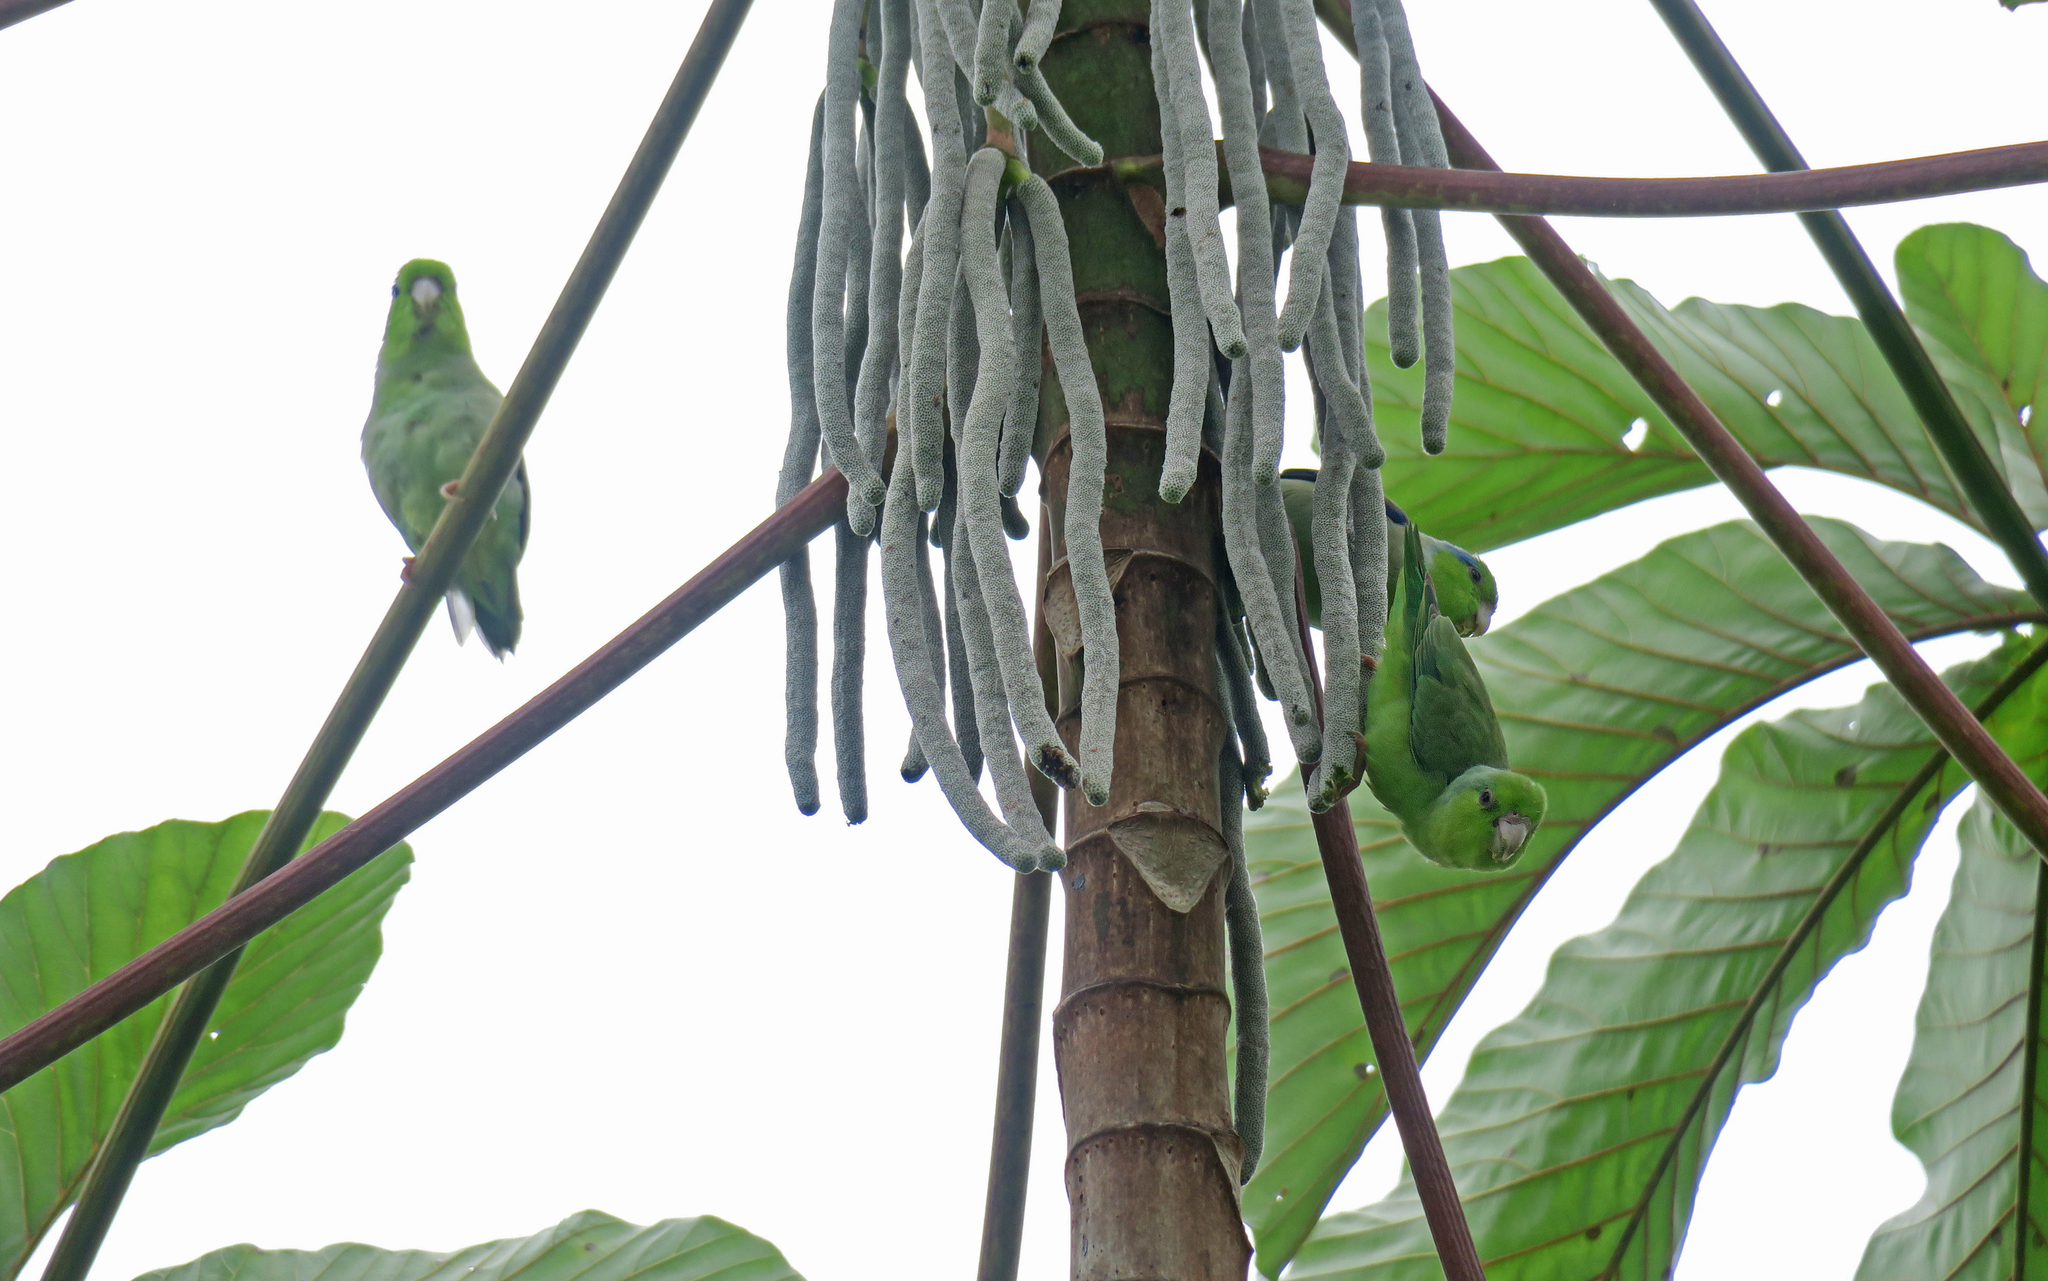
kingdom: Animalia
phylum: Chordata
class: Aves
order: Psittaciformes
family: Psittacidae
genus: Forpus
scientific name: Forpus coelestis
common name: Pacific parrotlet
